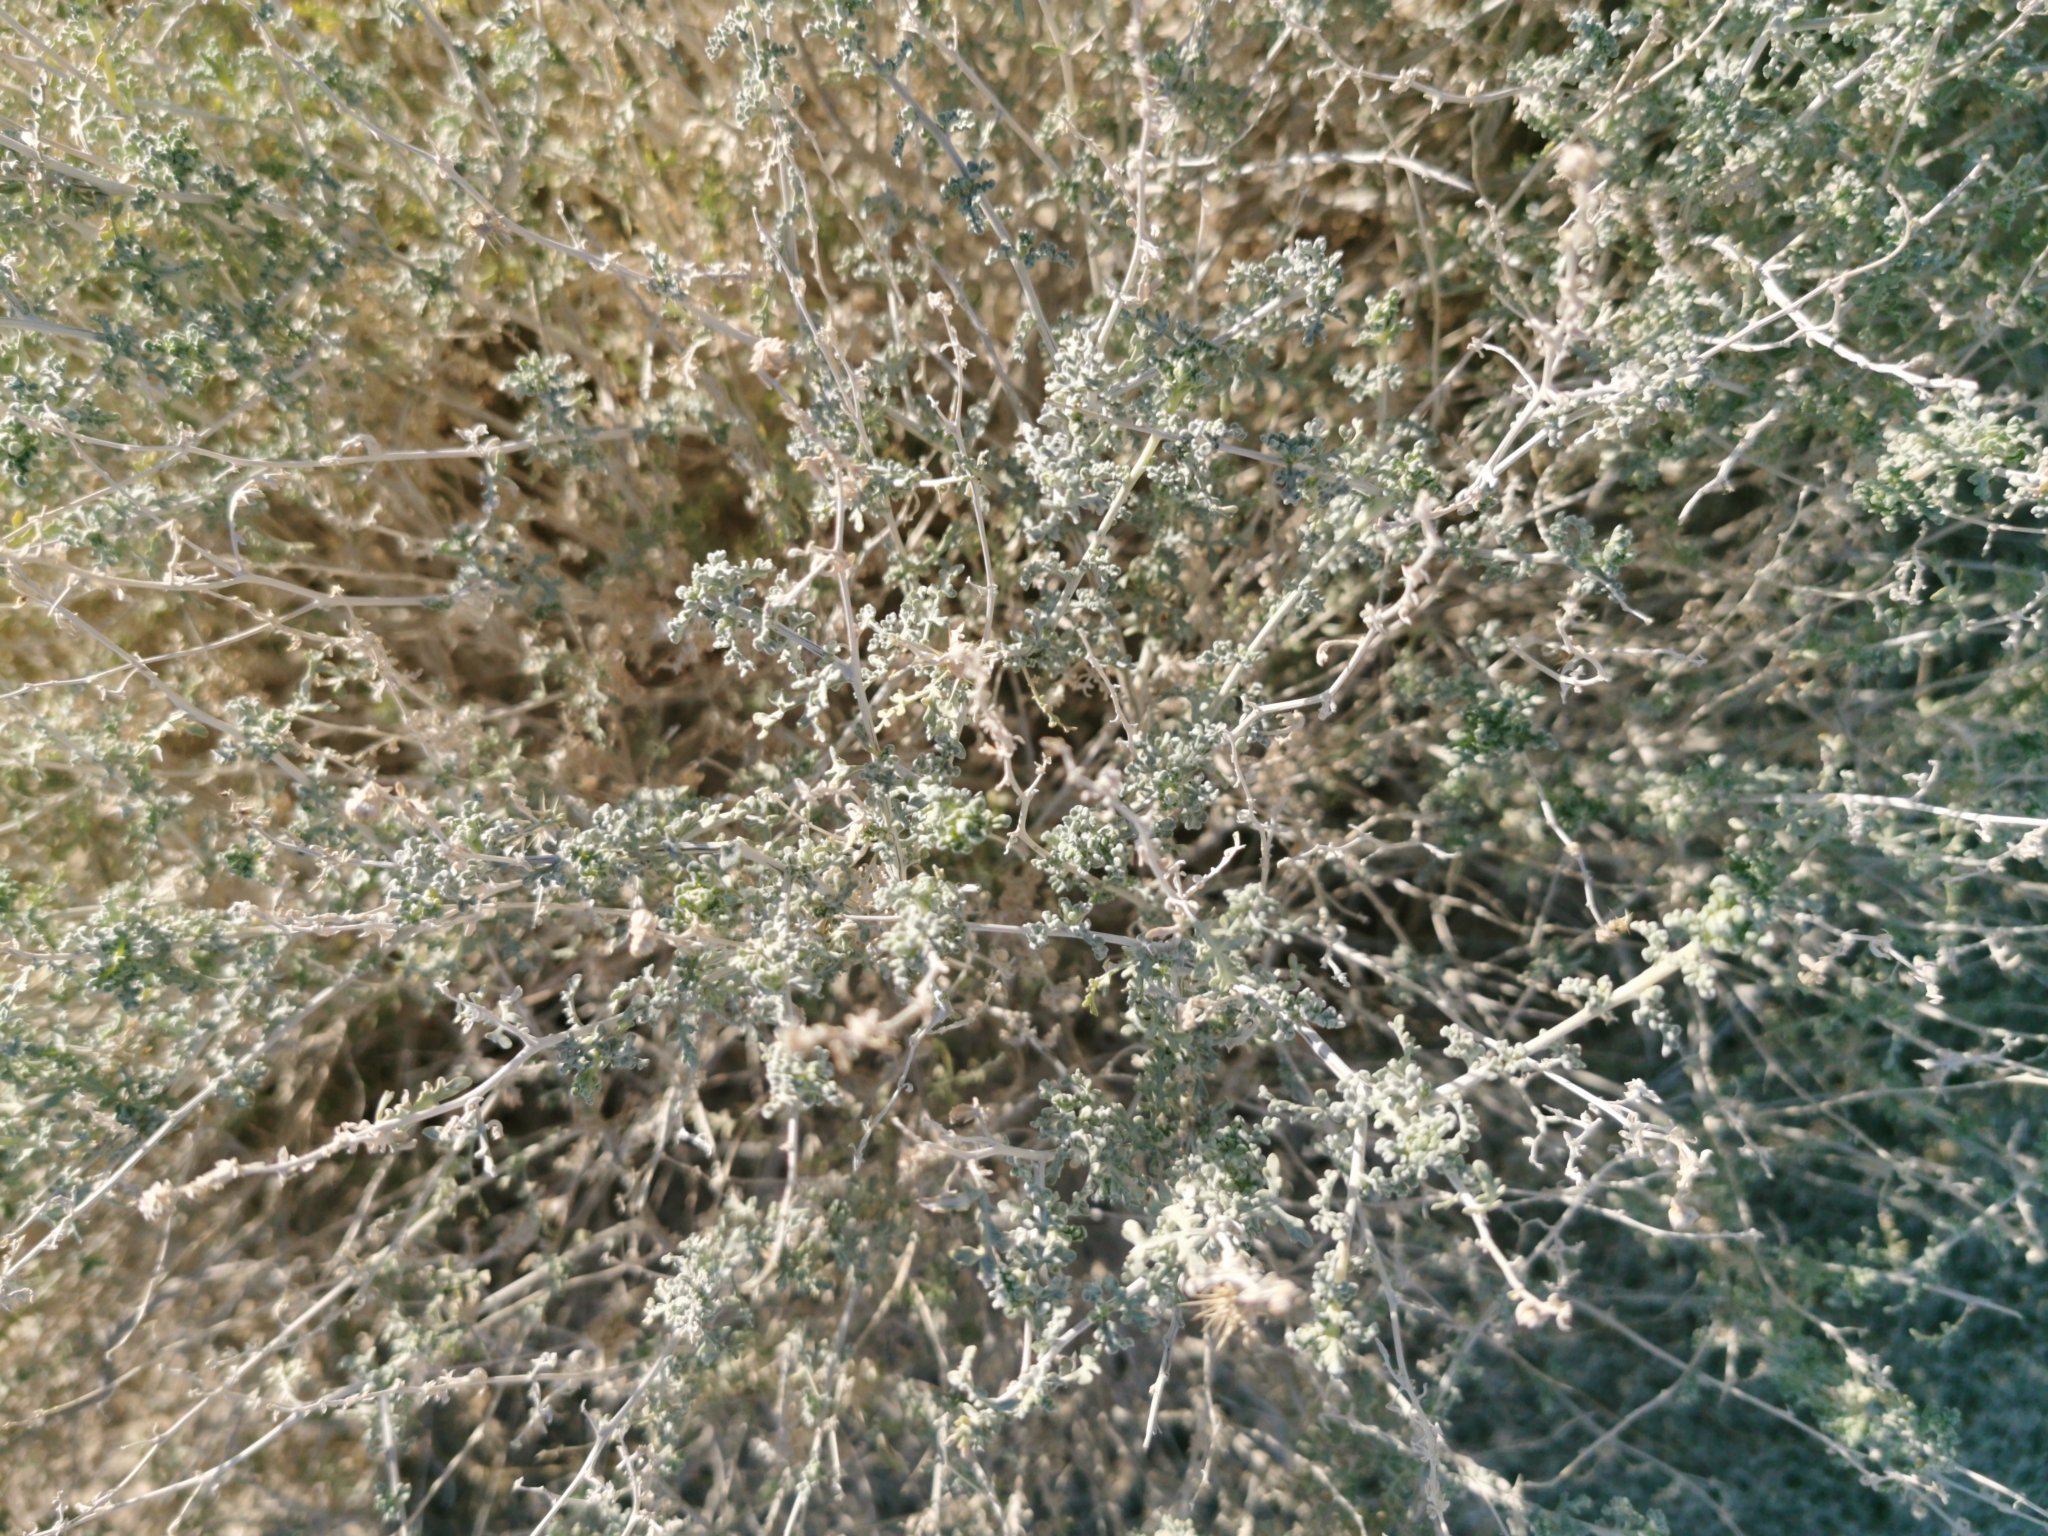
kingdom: Plantae
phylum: Tracheophyta
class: Magnoliopsida
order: Asterales
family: Asteraceae
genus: Ambrosia
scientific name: Ambrosia dumosa
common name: Bur-sage
